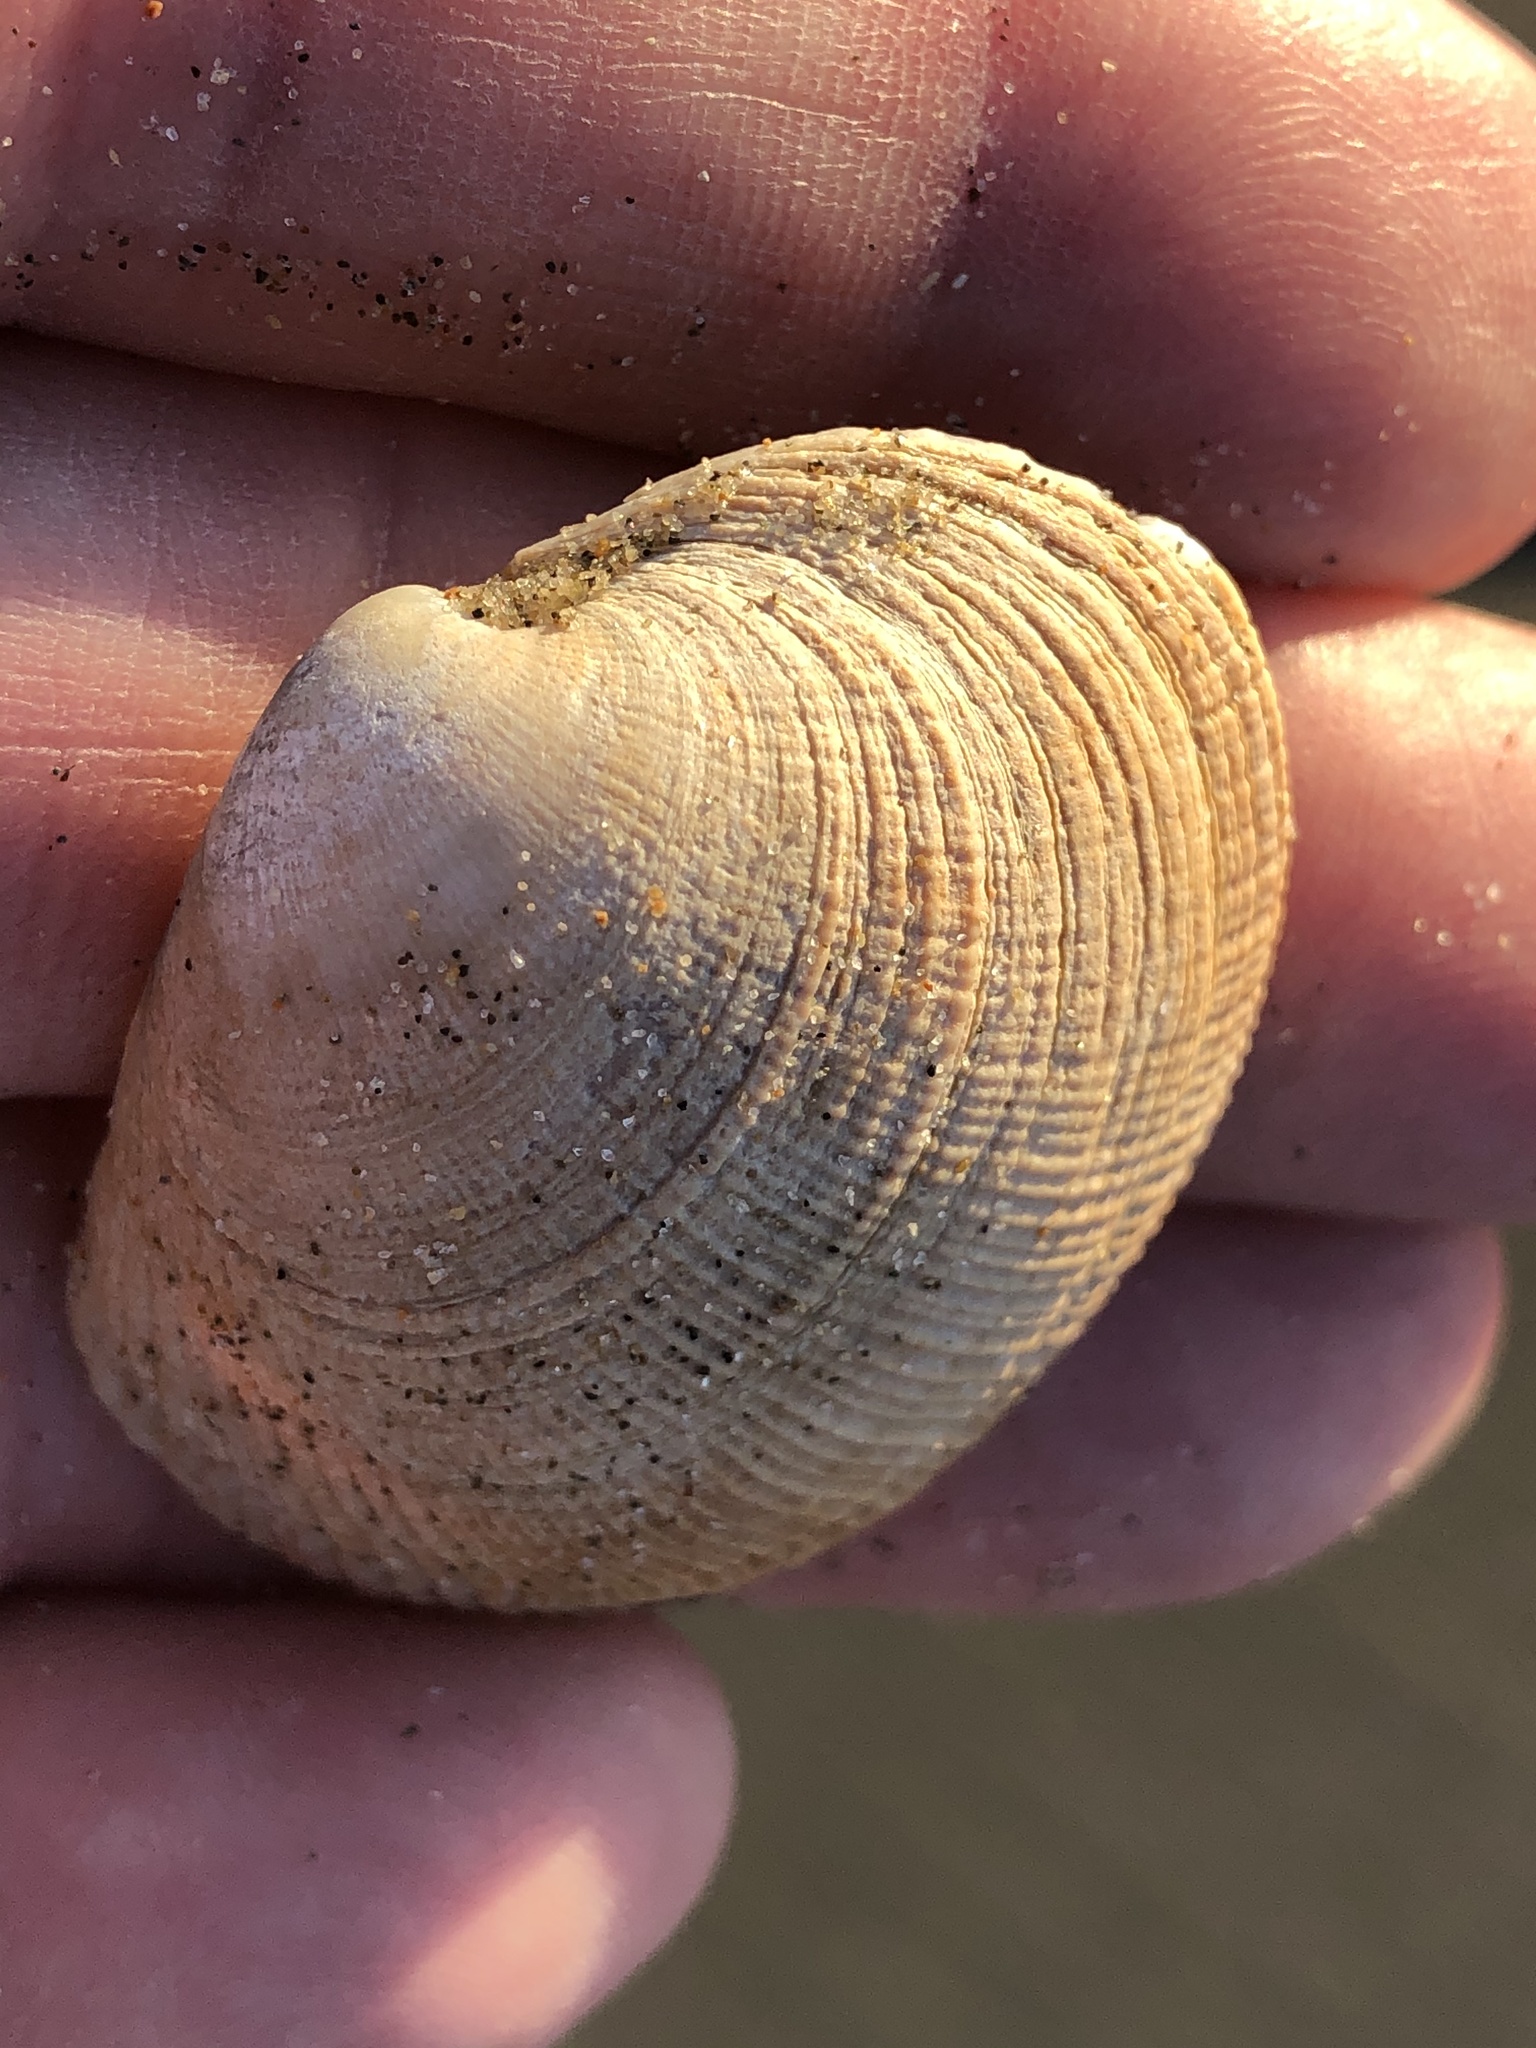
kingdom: Animalia
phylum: Mollusca
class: Bivalvia
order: Venerida
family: Veneridae
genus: Leukoma
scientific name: Leukoma staminea
